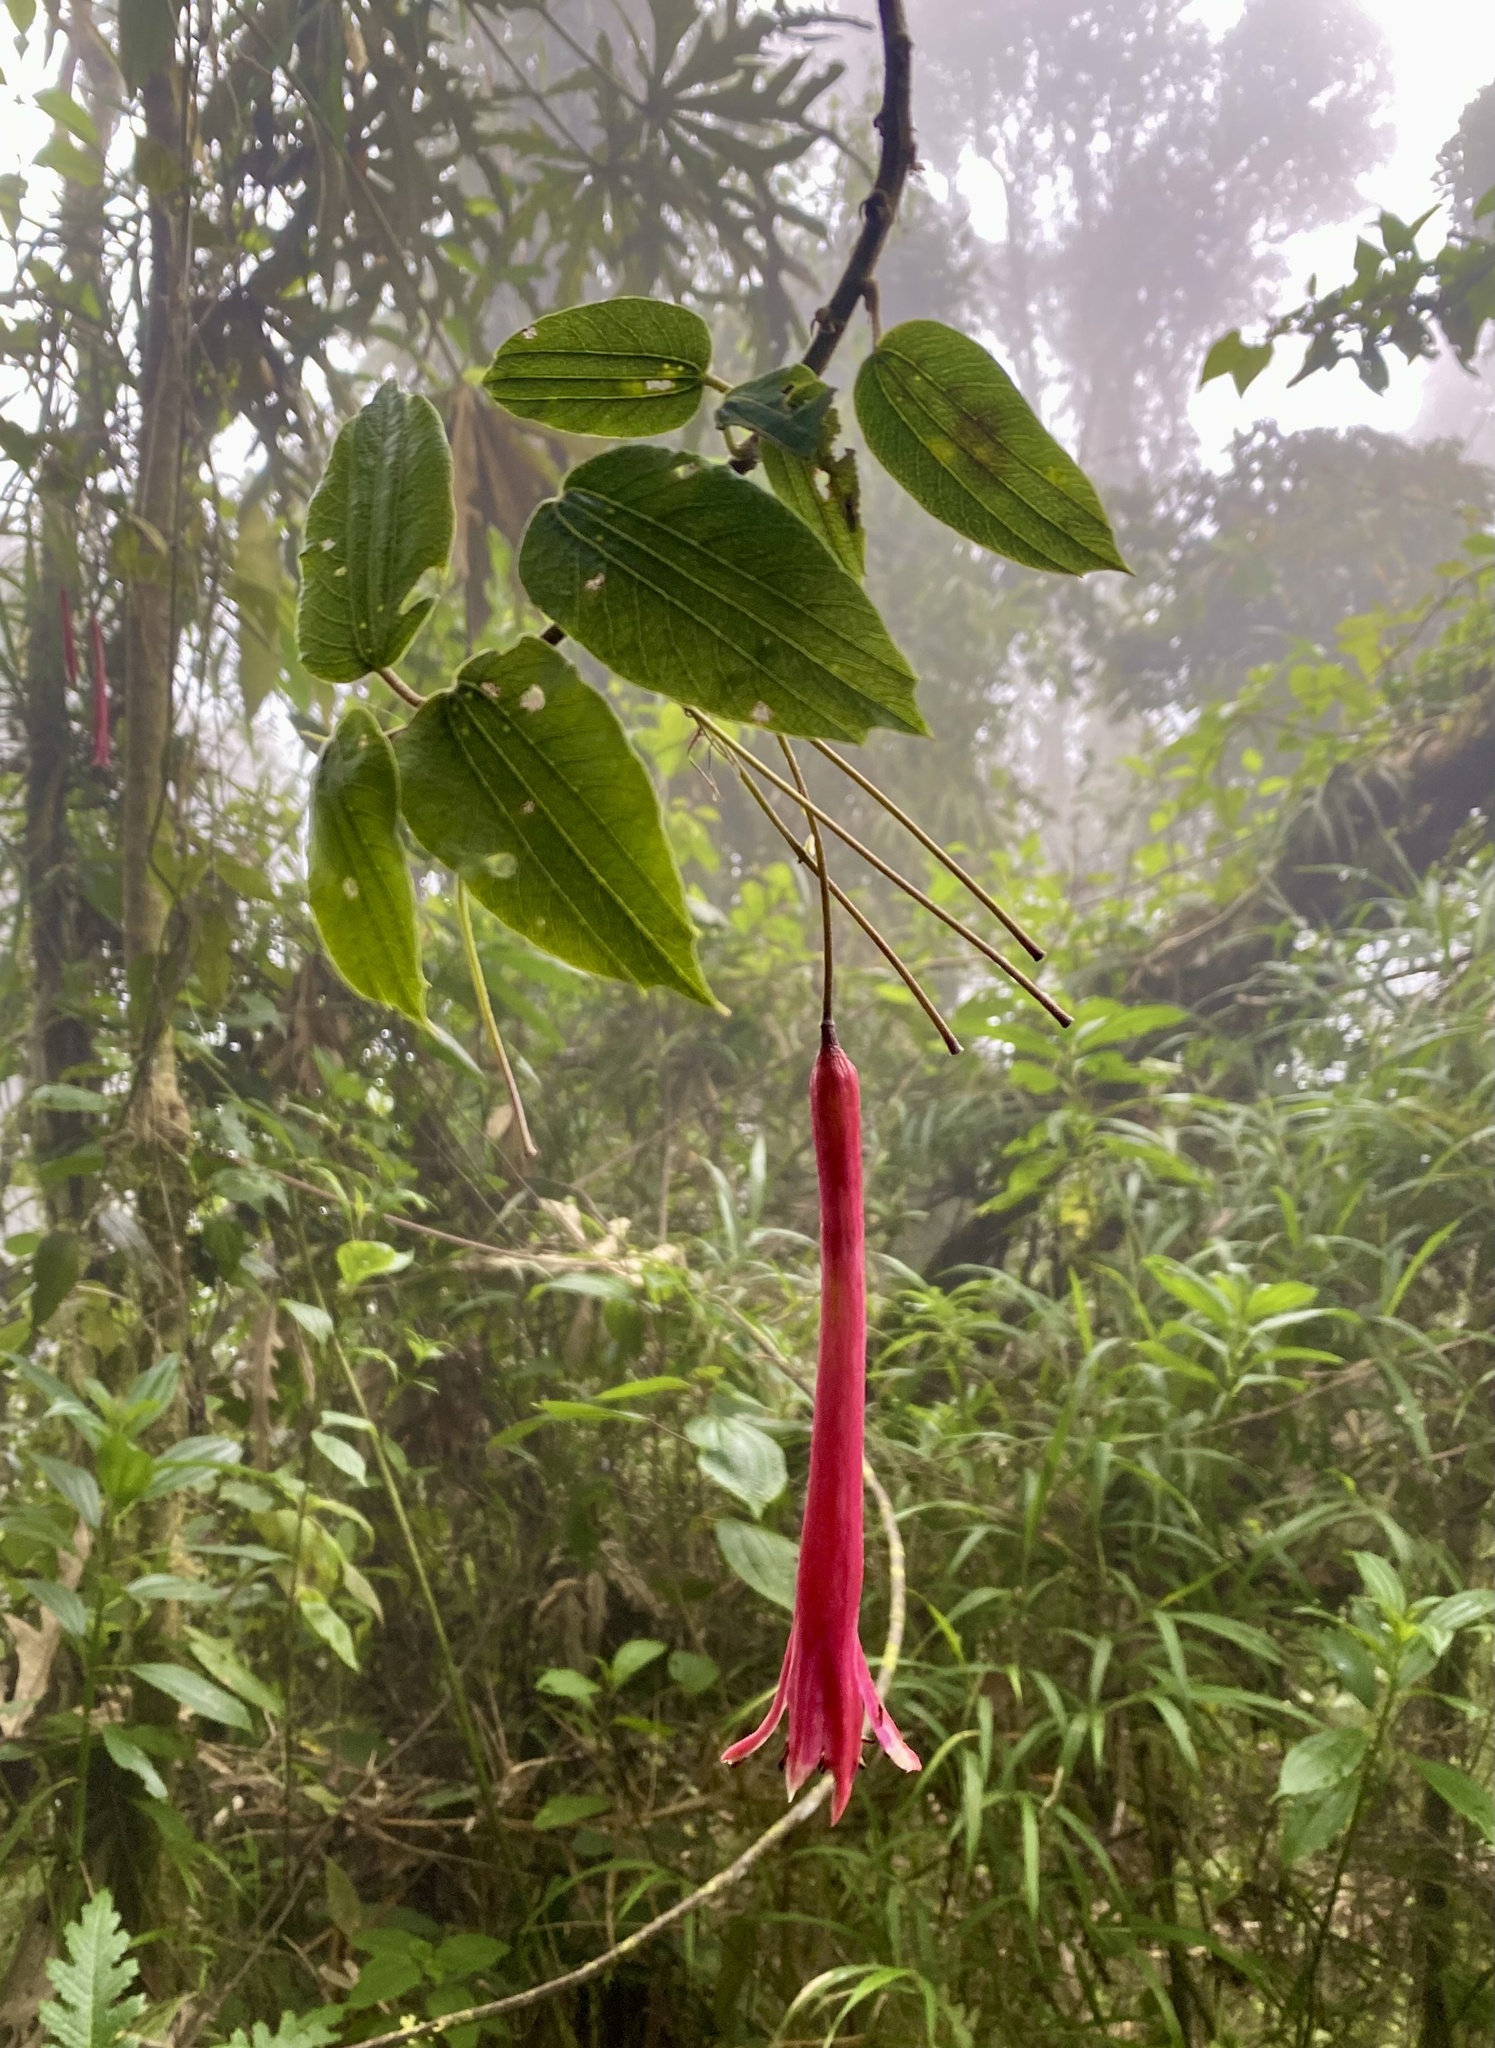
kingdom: Plantae
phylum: Tracheophyta
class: Magnoliopsida
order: Malpighiales
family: Passifloraceae
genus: Passiflora
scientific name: Passiflora trinervia
